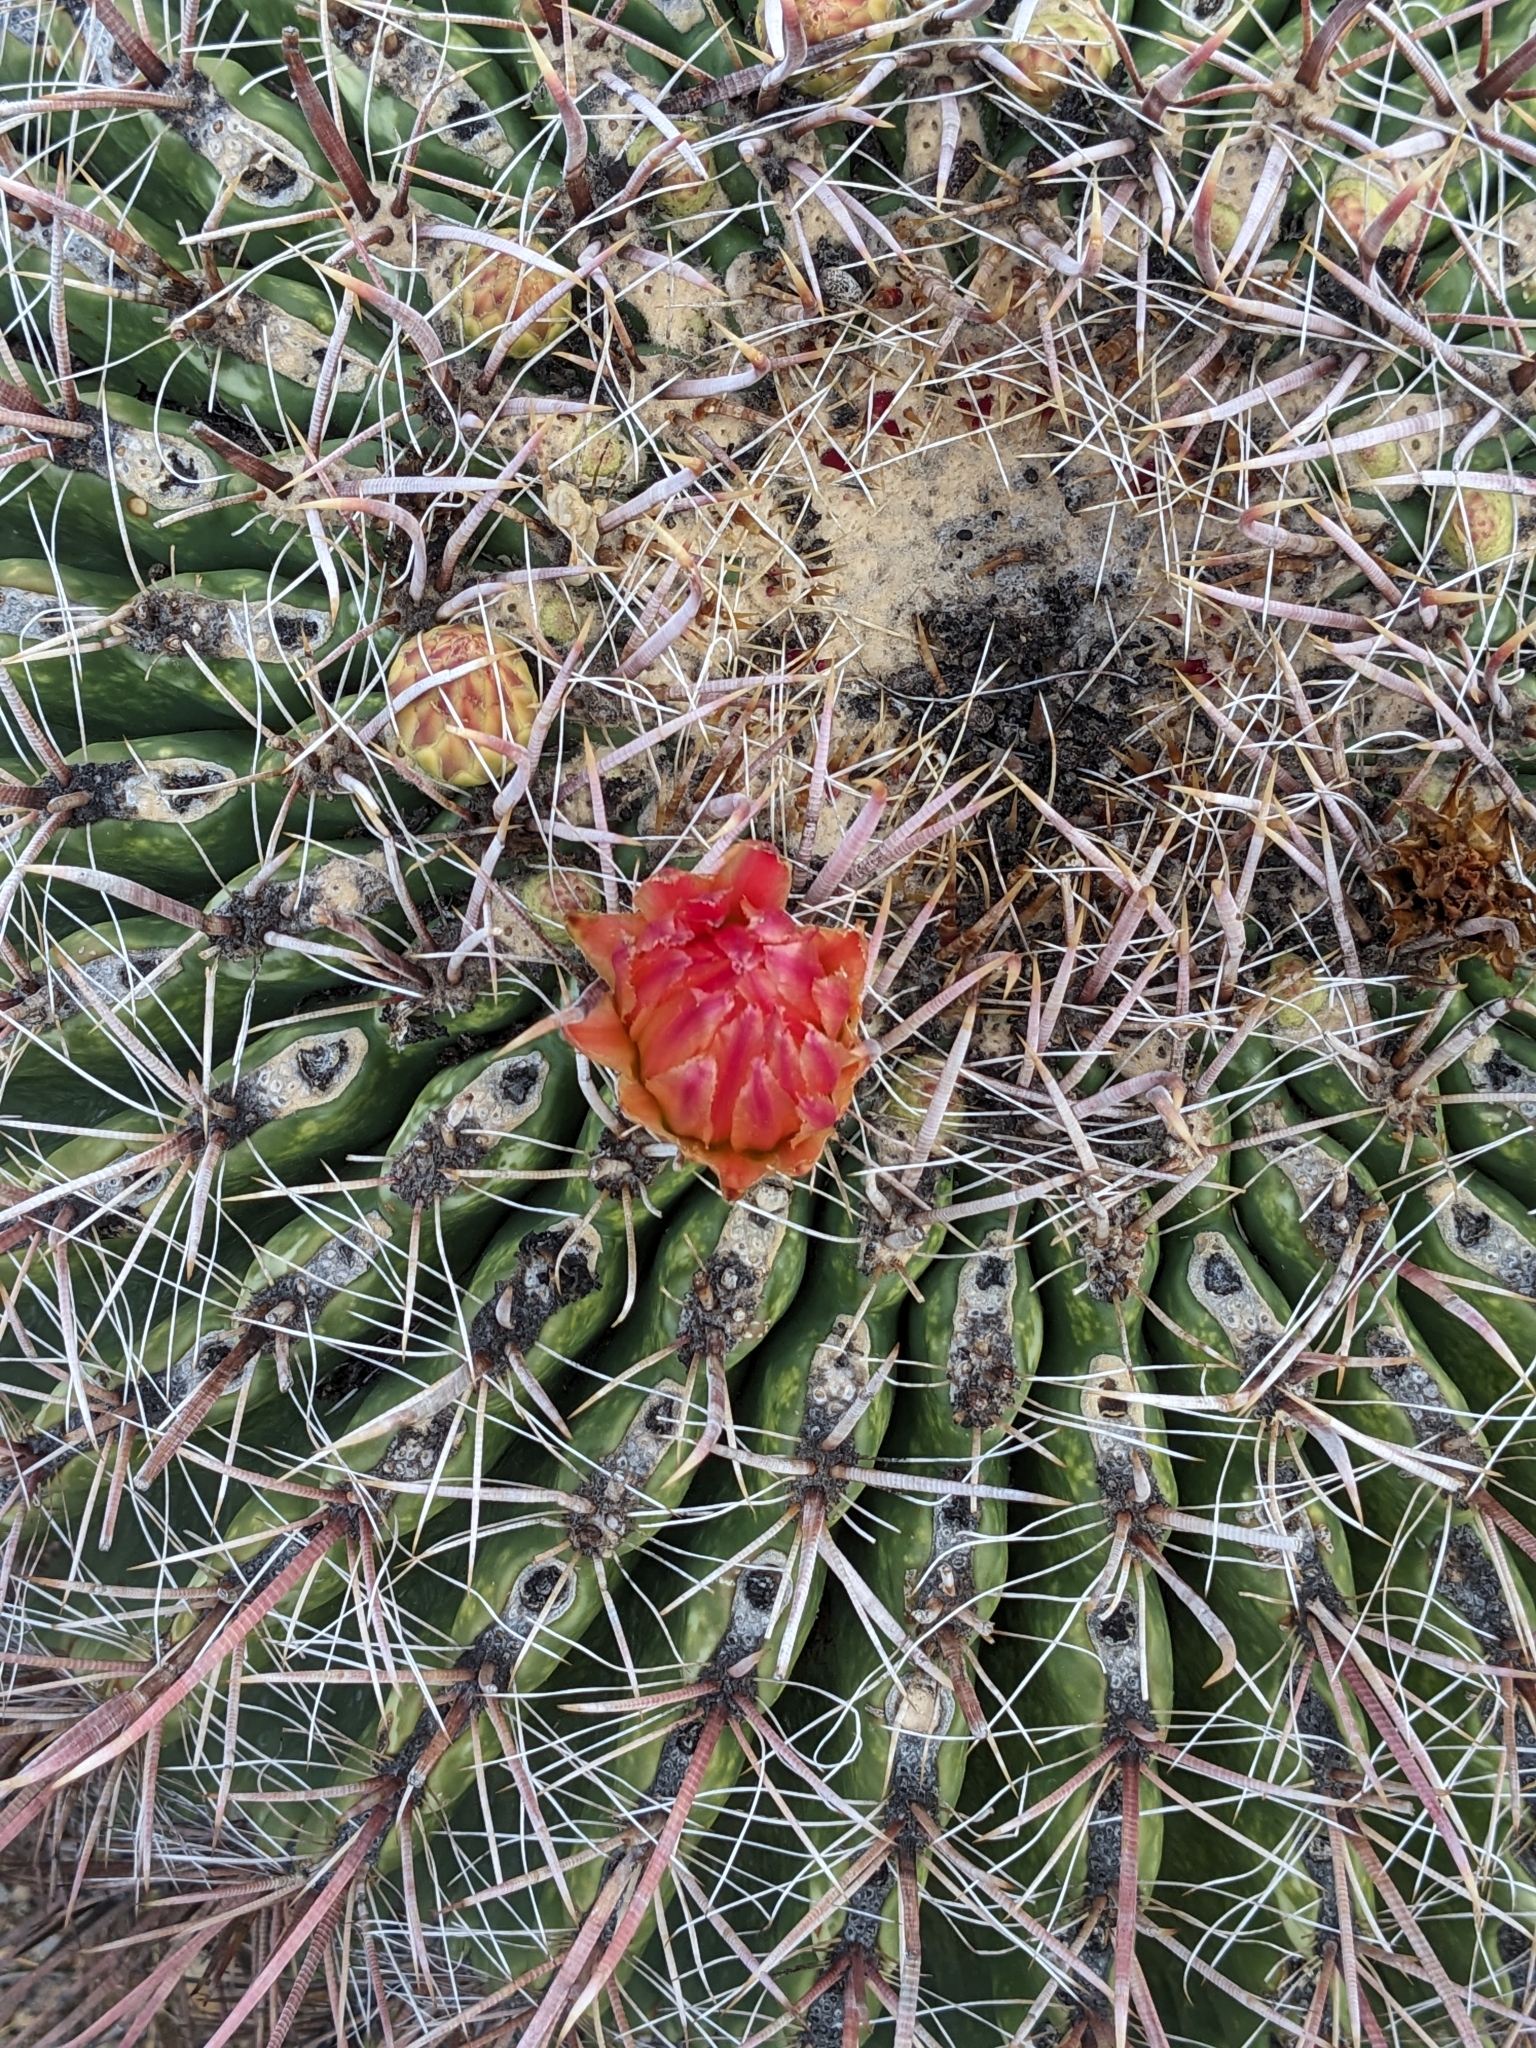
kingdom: Plantae
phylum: Tracheophyta
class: Magnoliopsida
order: Caryophyllales
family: Cactaceae
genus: Ferocactus
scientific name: Ferocactus wislizeni
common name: Candy barrel cactus
